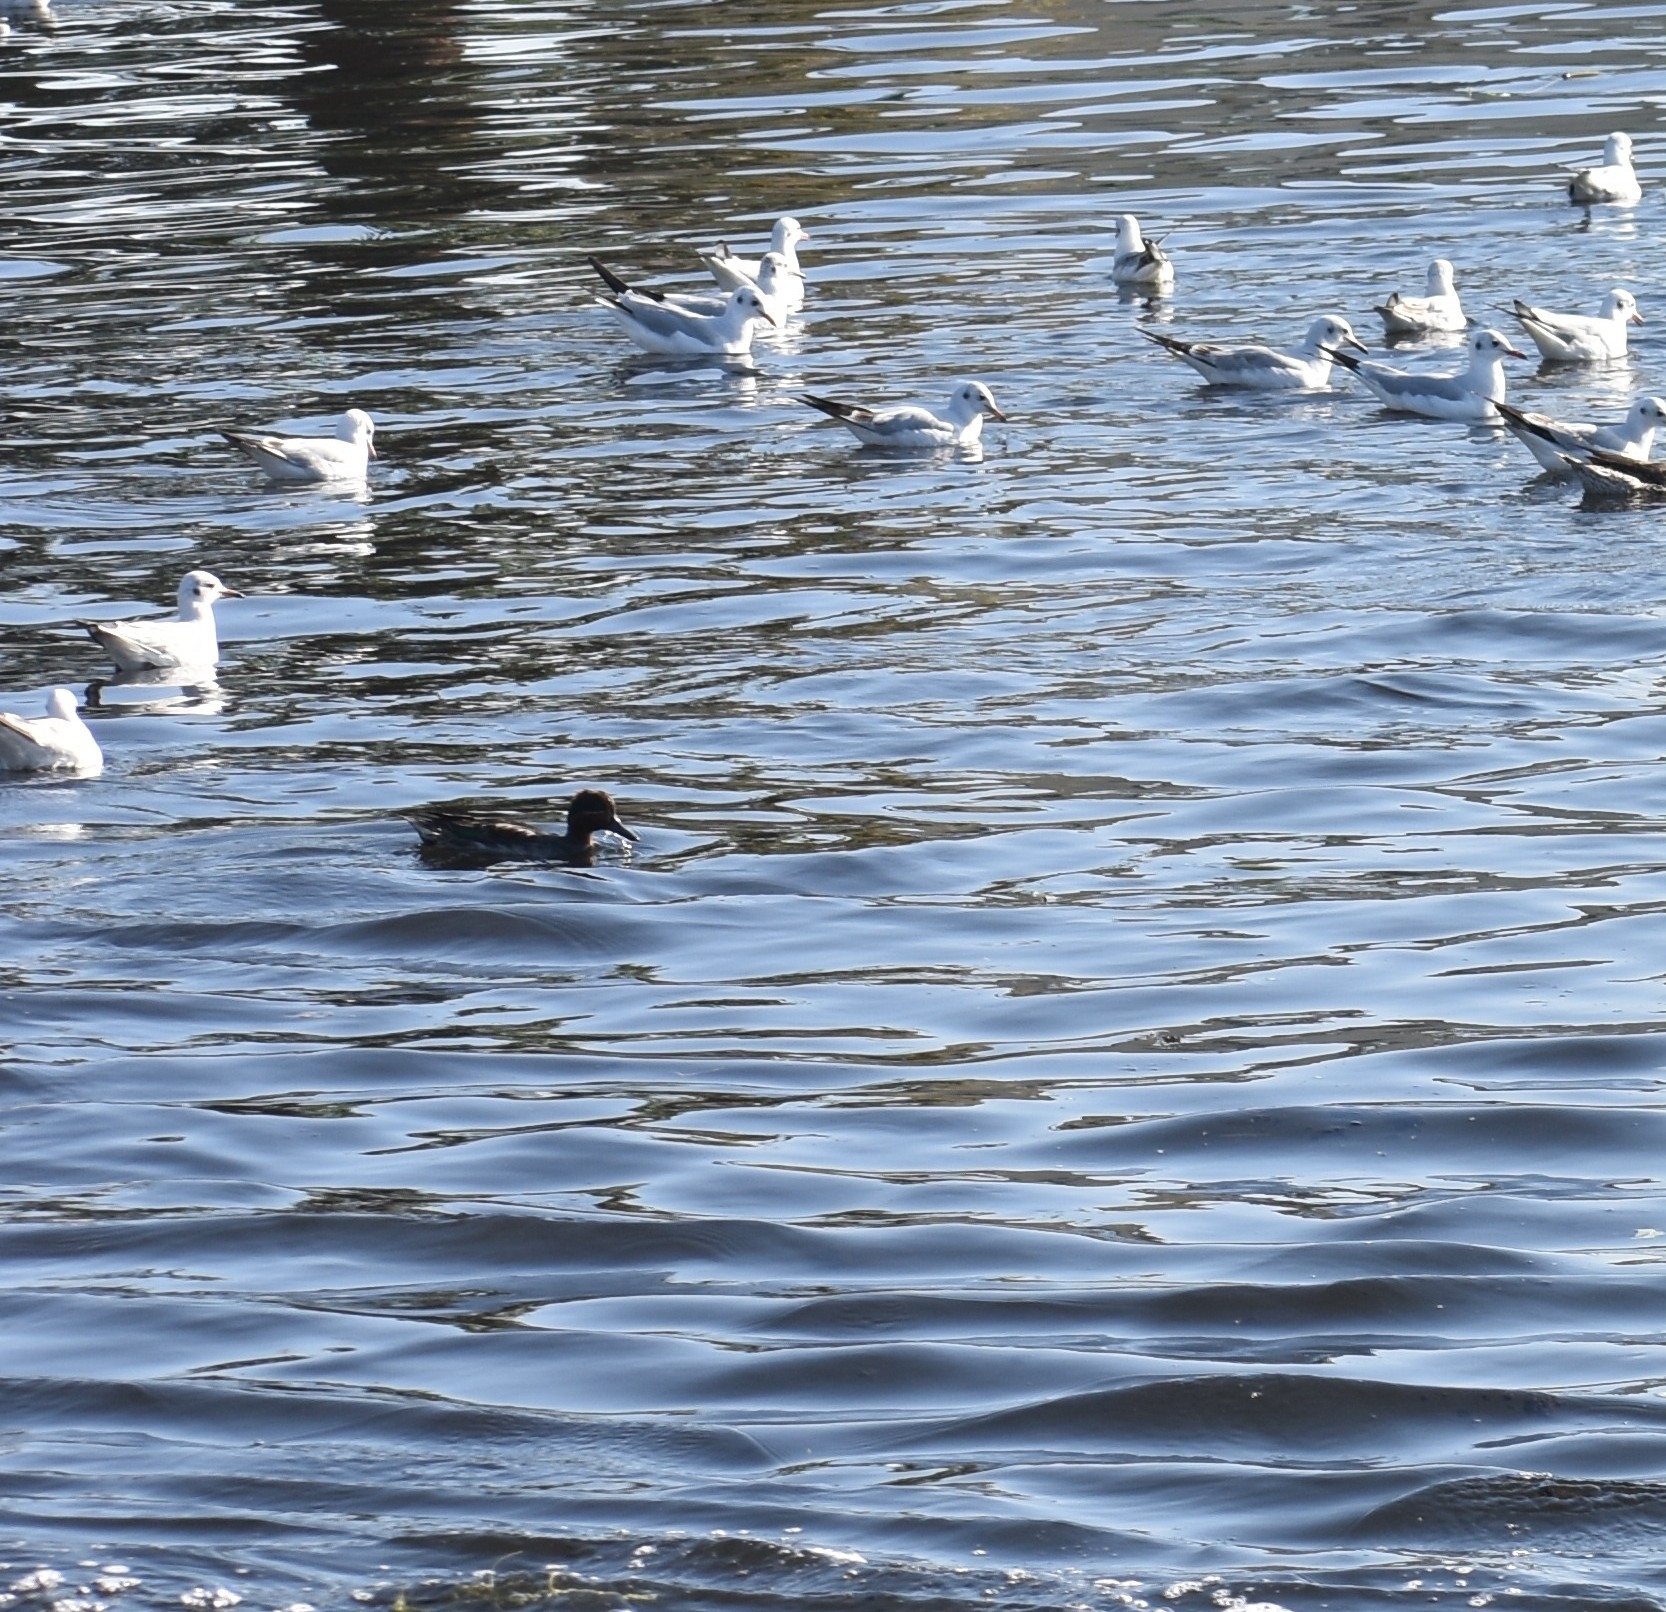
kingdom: Animalia
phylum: Chordata
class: Aves
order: Anseriformes
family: Anatidae
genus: Anas
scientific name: Anas crecca
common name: Eurasian teal
